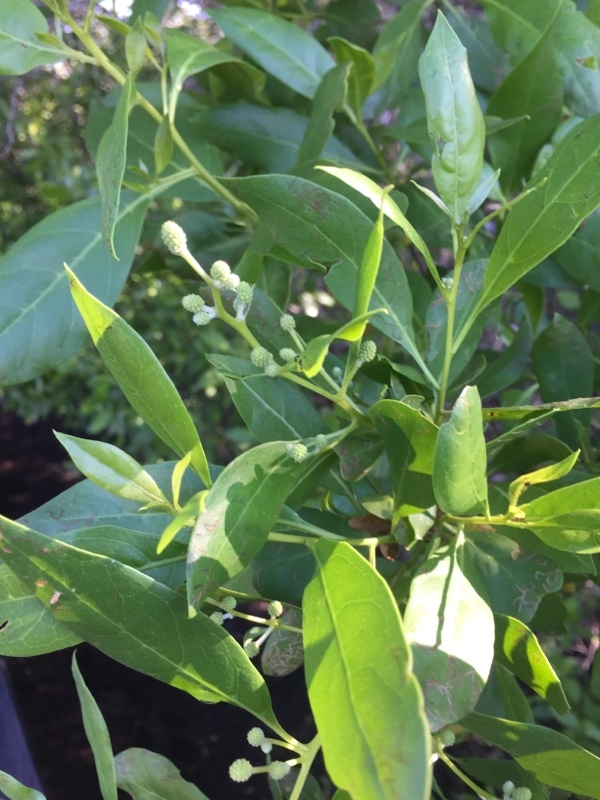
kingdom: Plantae
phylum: Tracheophyta
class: Magnoliopsida
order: Myrtales
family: Combretaceae
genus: Conocarpus
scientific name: Conocarpus erectus
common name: Button mangrove
